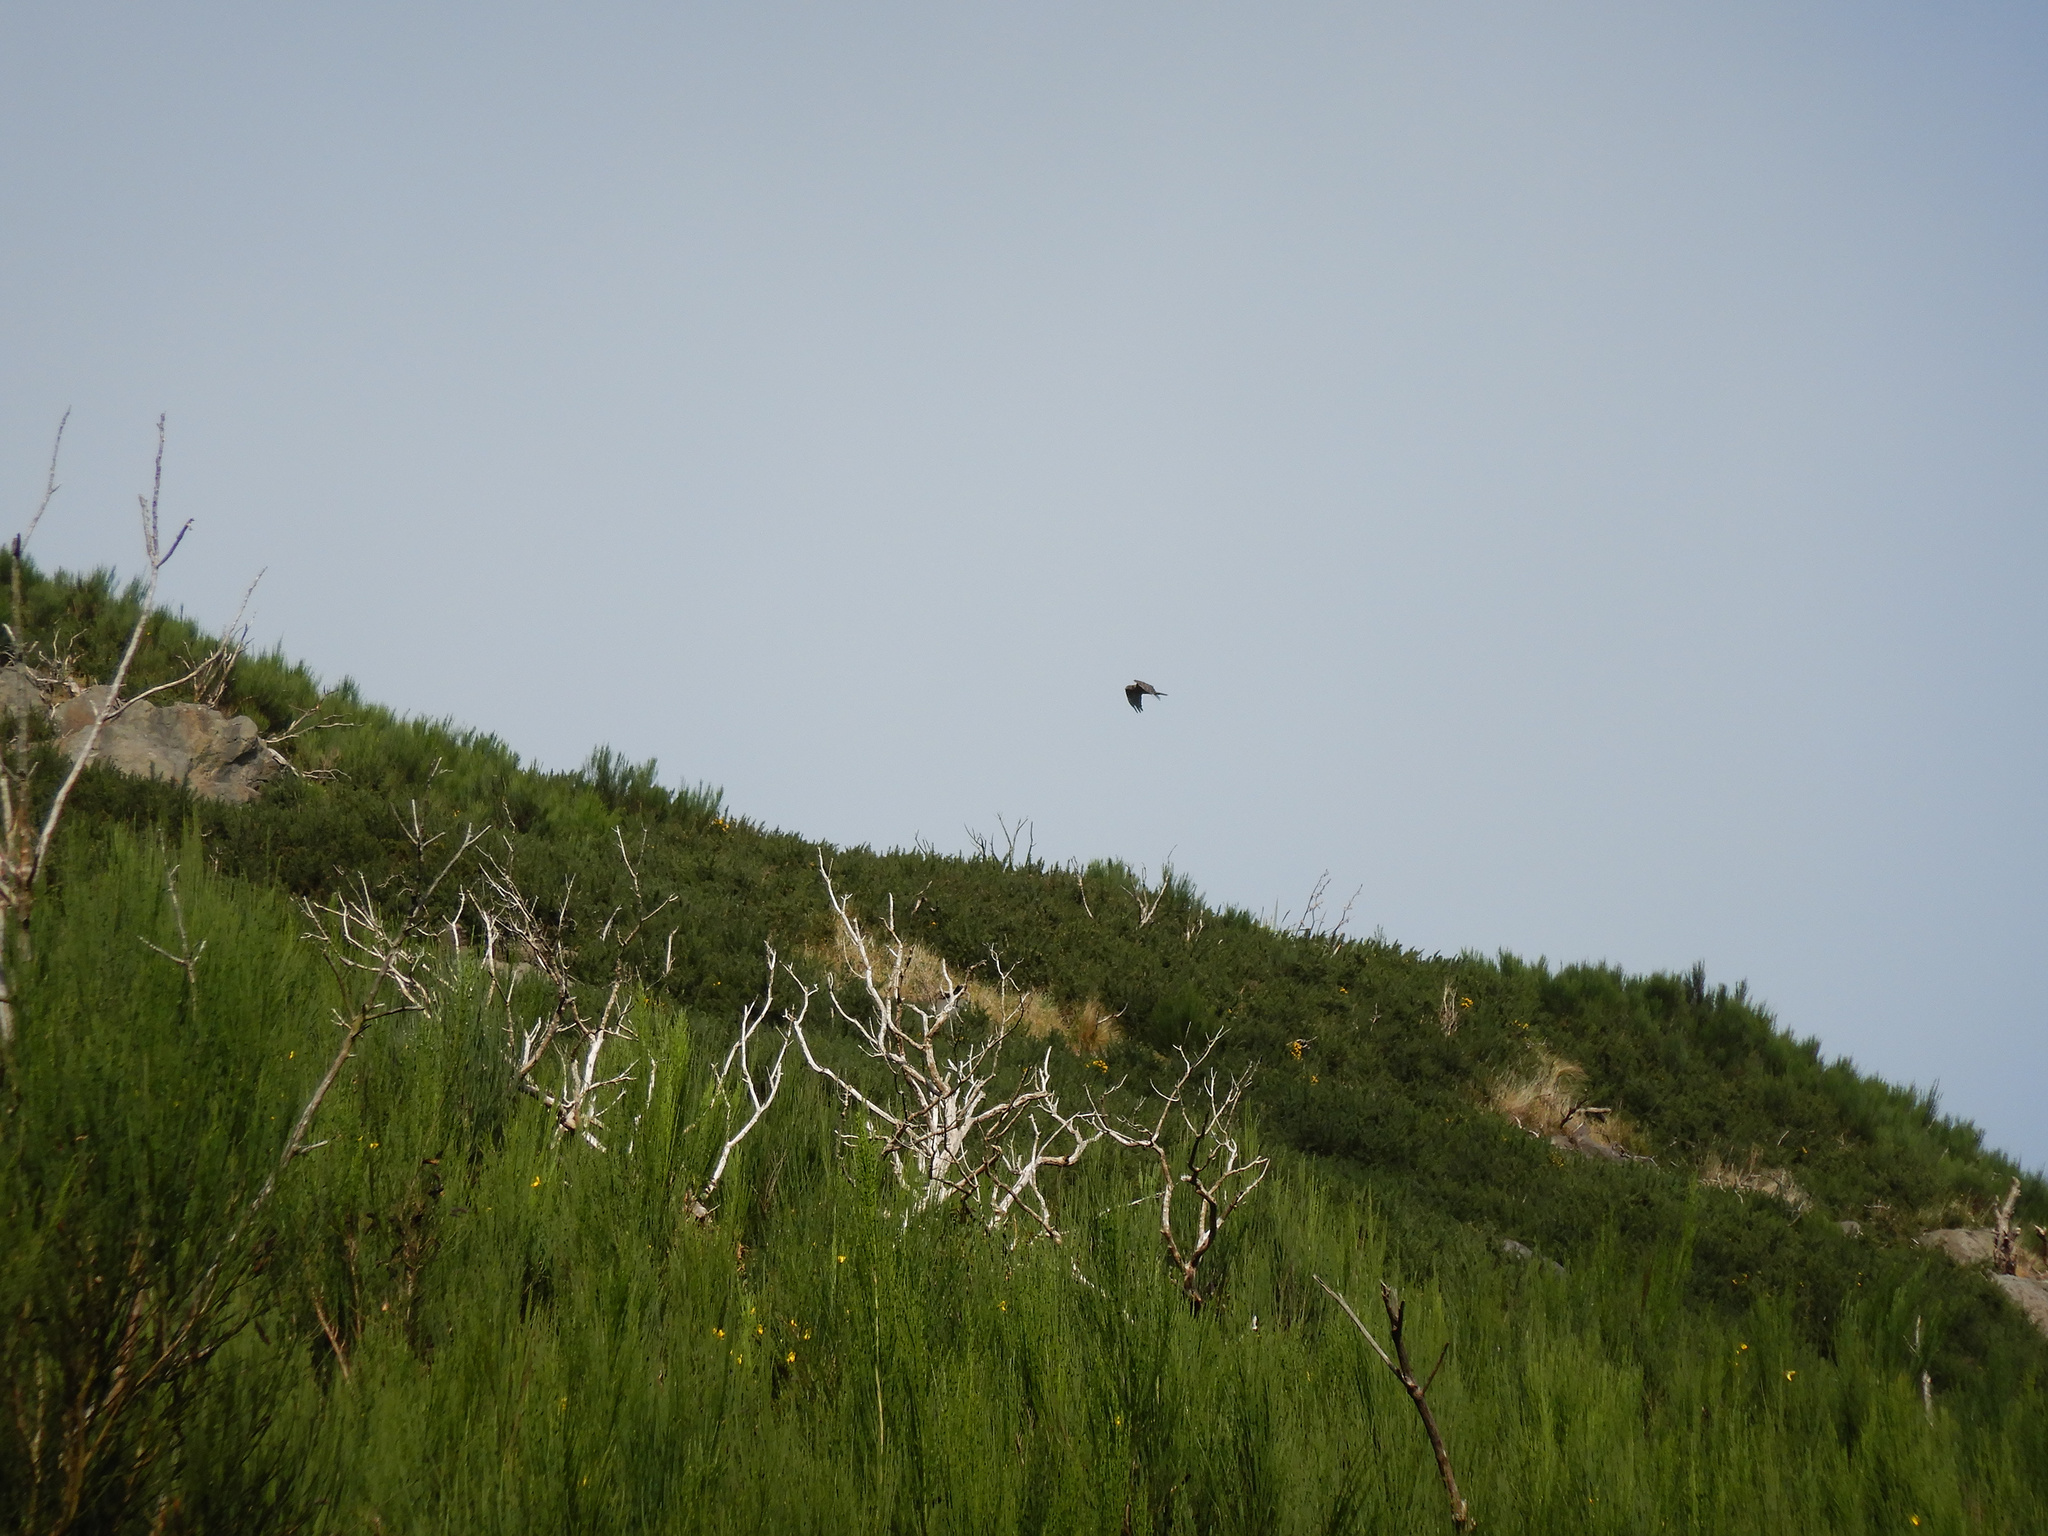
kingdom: Animalia
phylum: Chordata
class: Aves
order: Accipitriformes
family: Accipitridae
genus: Circus
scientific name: Circus approximans
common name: Swamp harrier
